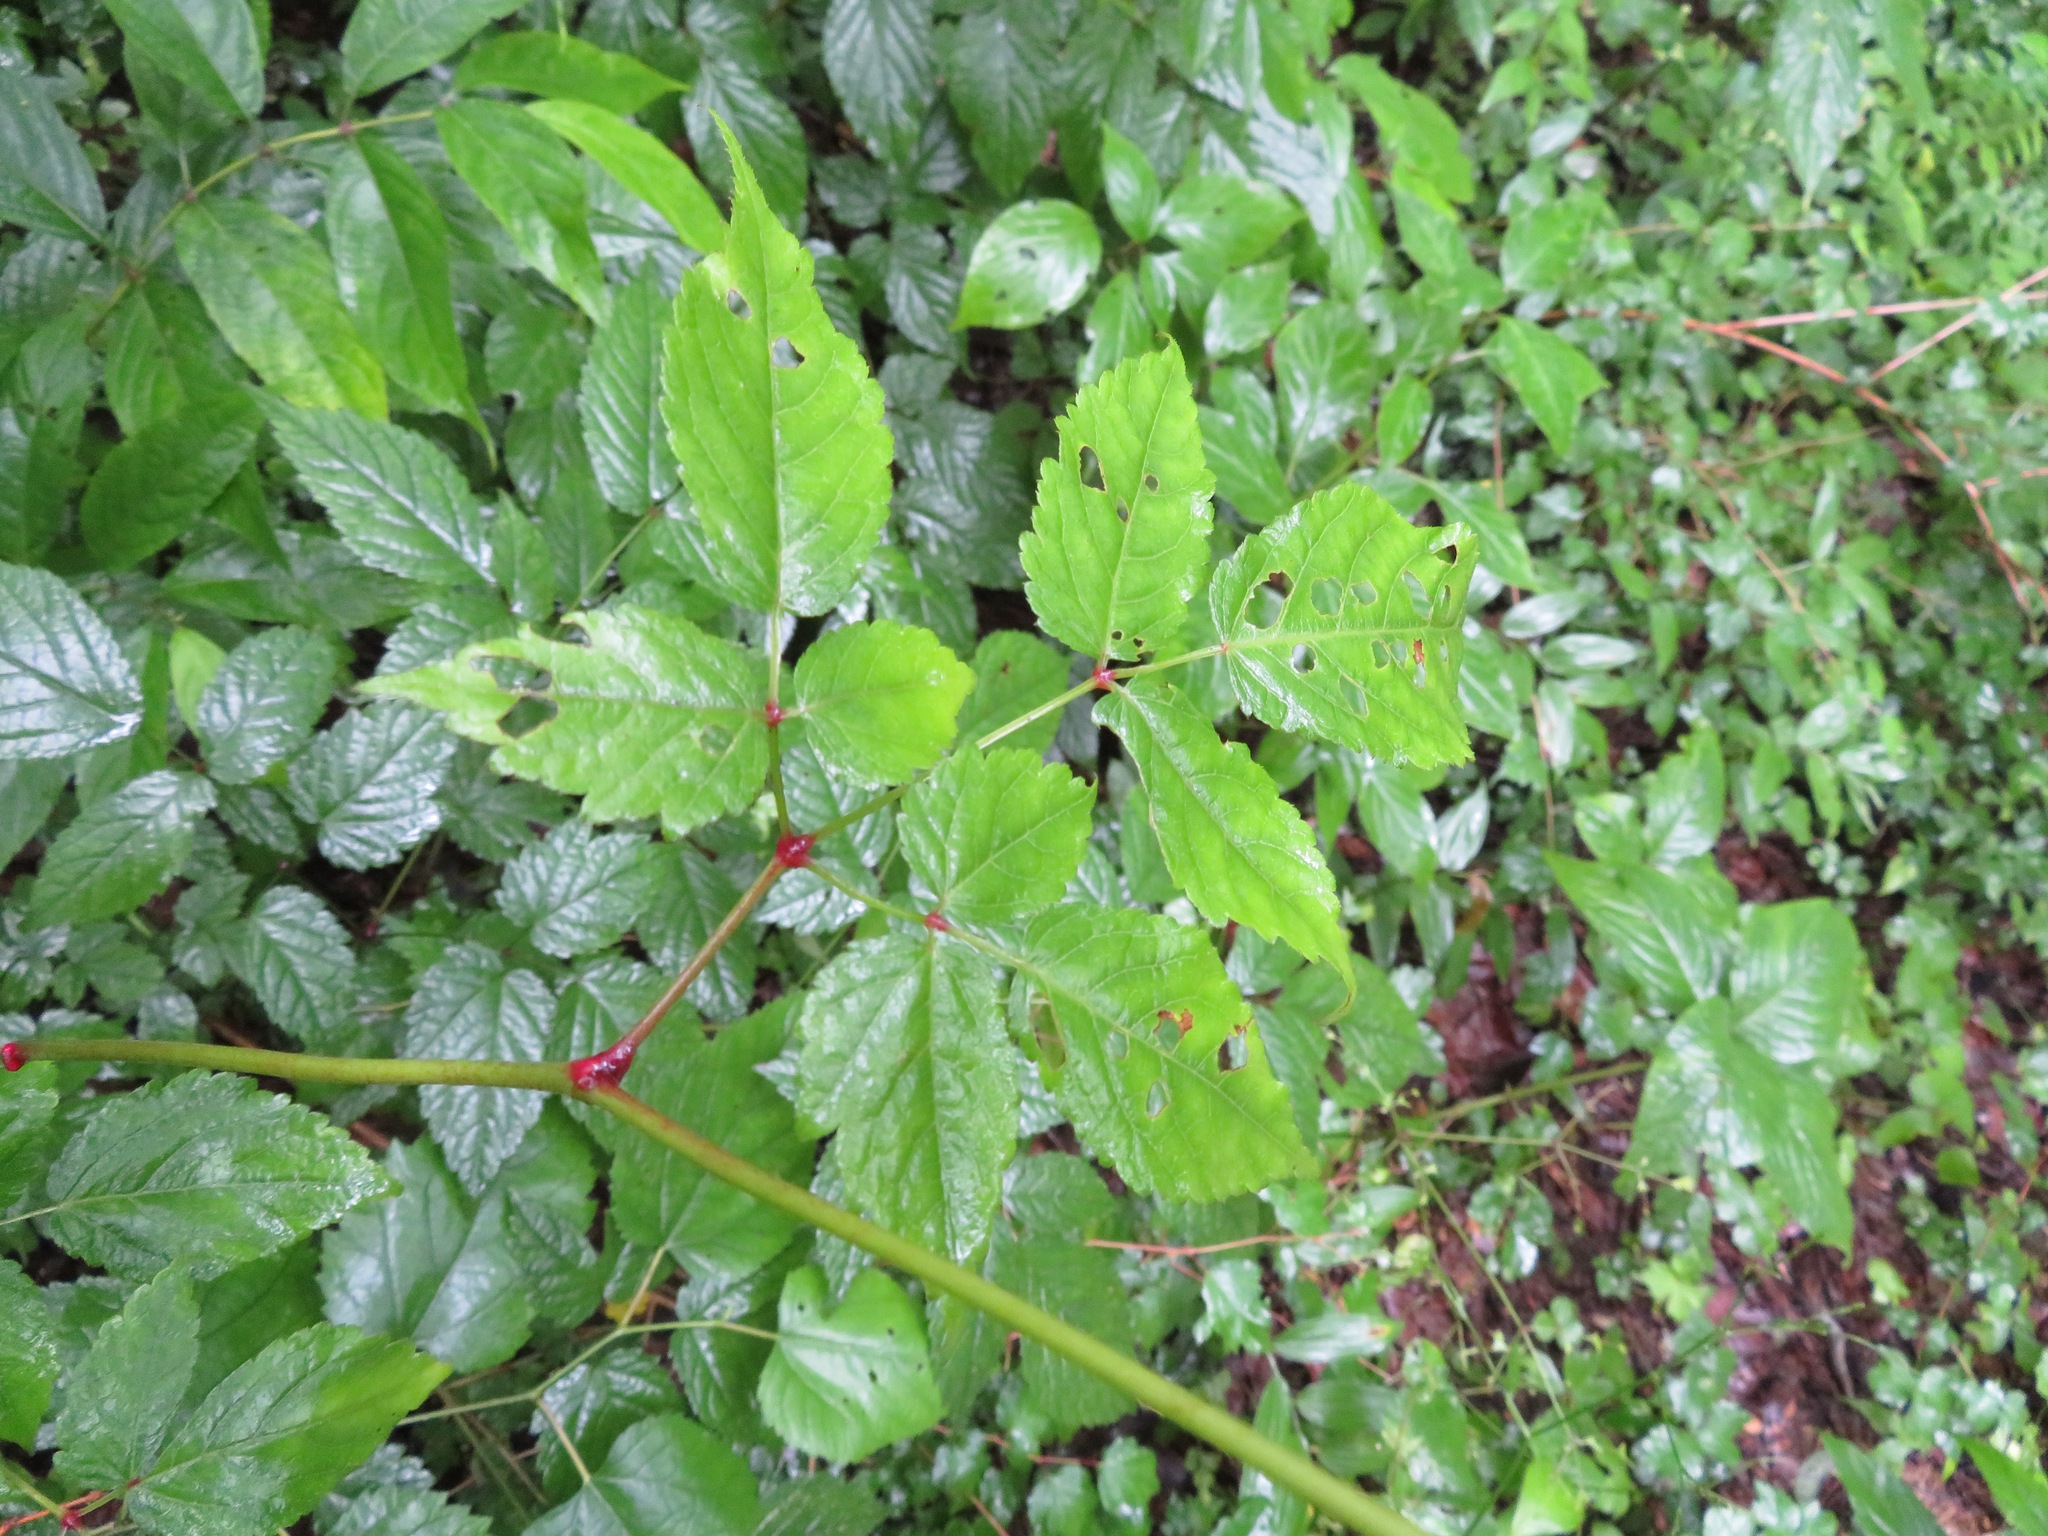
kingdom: Plantae
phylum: Tracheophyta
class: Magnoliopsida
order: Saxifragales
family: Saxifragaceae
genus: Astilbe
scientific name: Astilbe thunbergii
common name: Thunberg's astilbe
